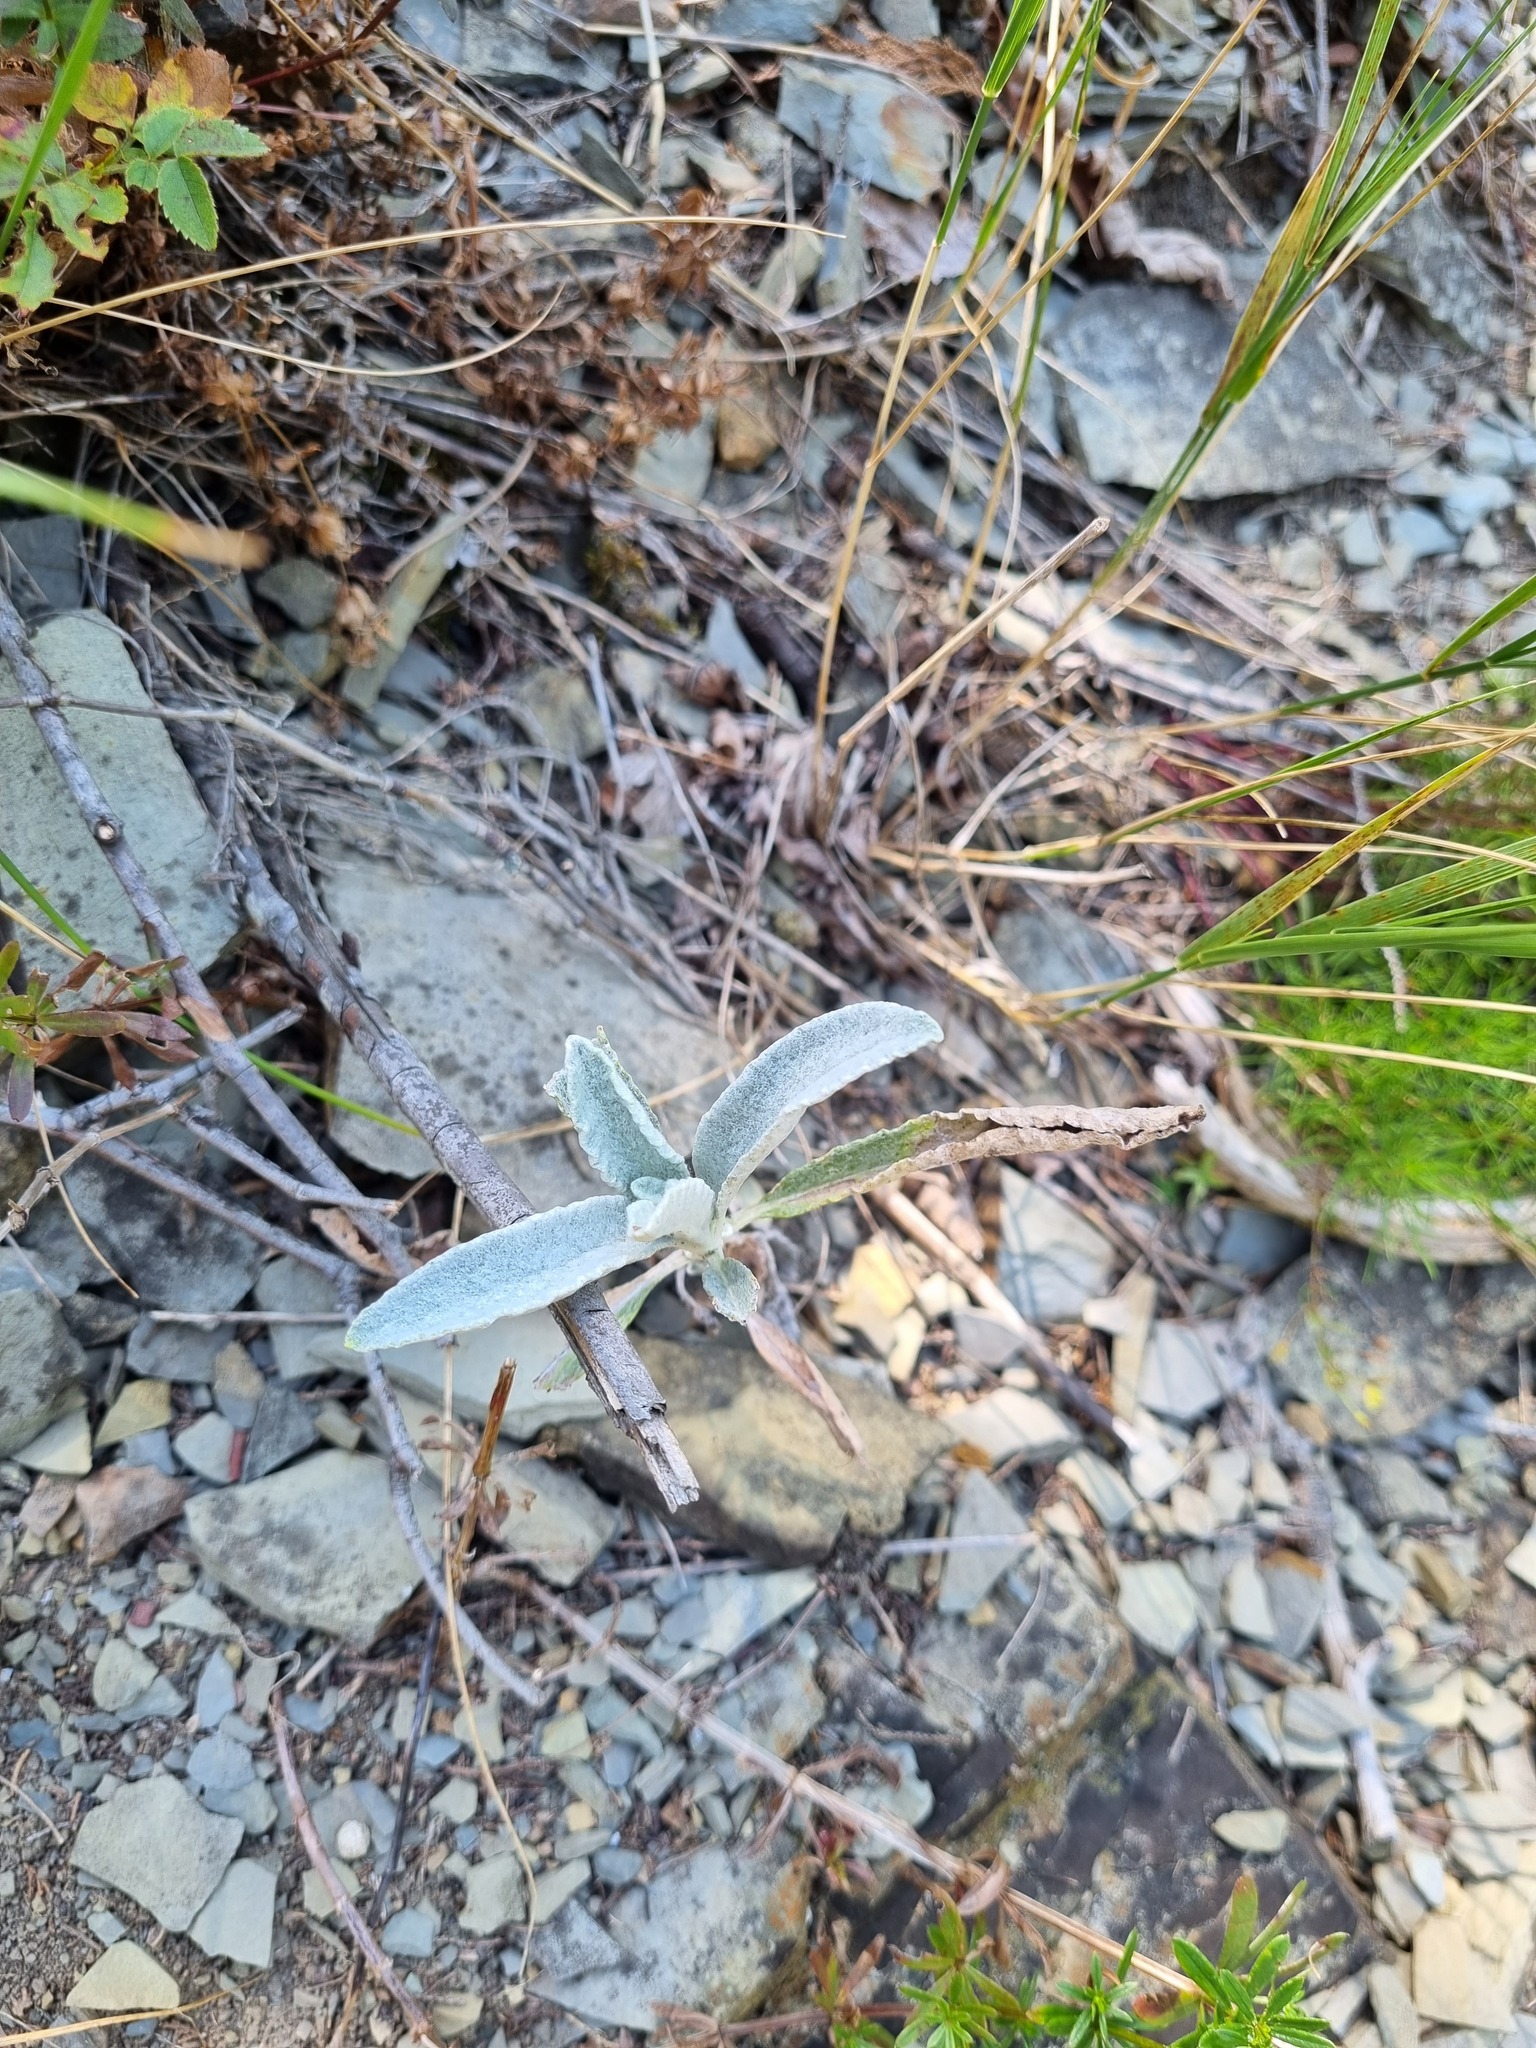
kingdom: Plantae
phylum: Tracheophyta
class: Magnoliopsida
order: Lamiales
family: Lamiaceae
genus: Sideritis
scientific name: Sideritis euxina
